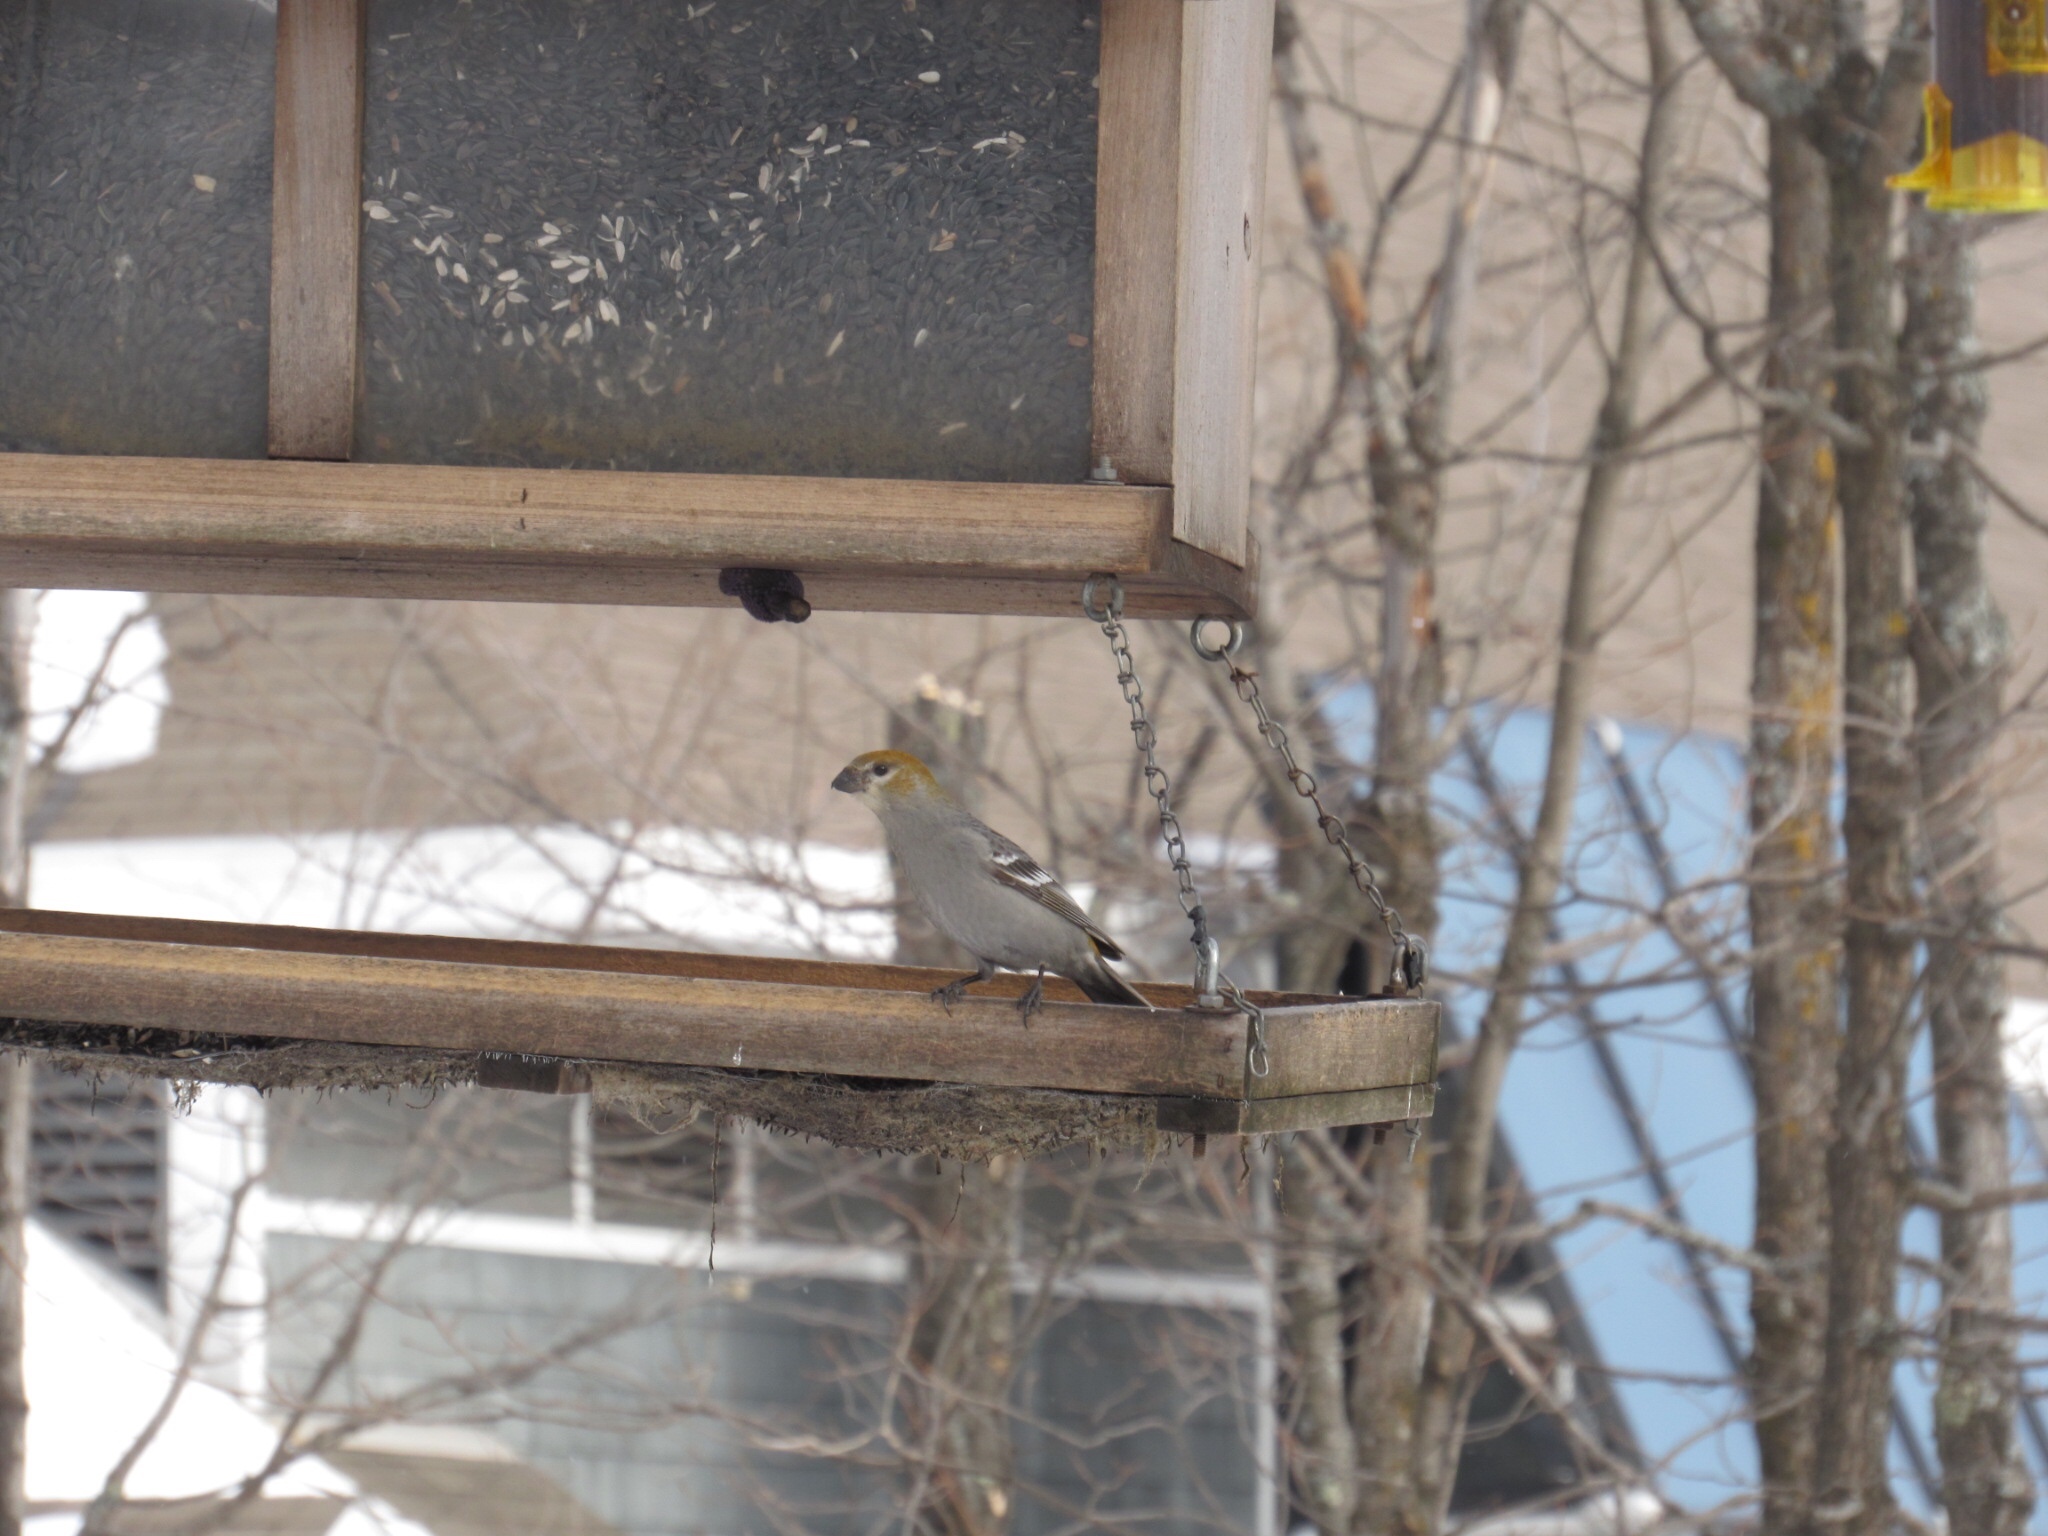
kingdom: Animalia
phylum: Chordata
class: Aves
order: Passeriformes
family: Fringillidae
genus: Pinicola
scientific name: Pinicola enucleator
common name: Pine grosbeak
